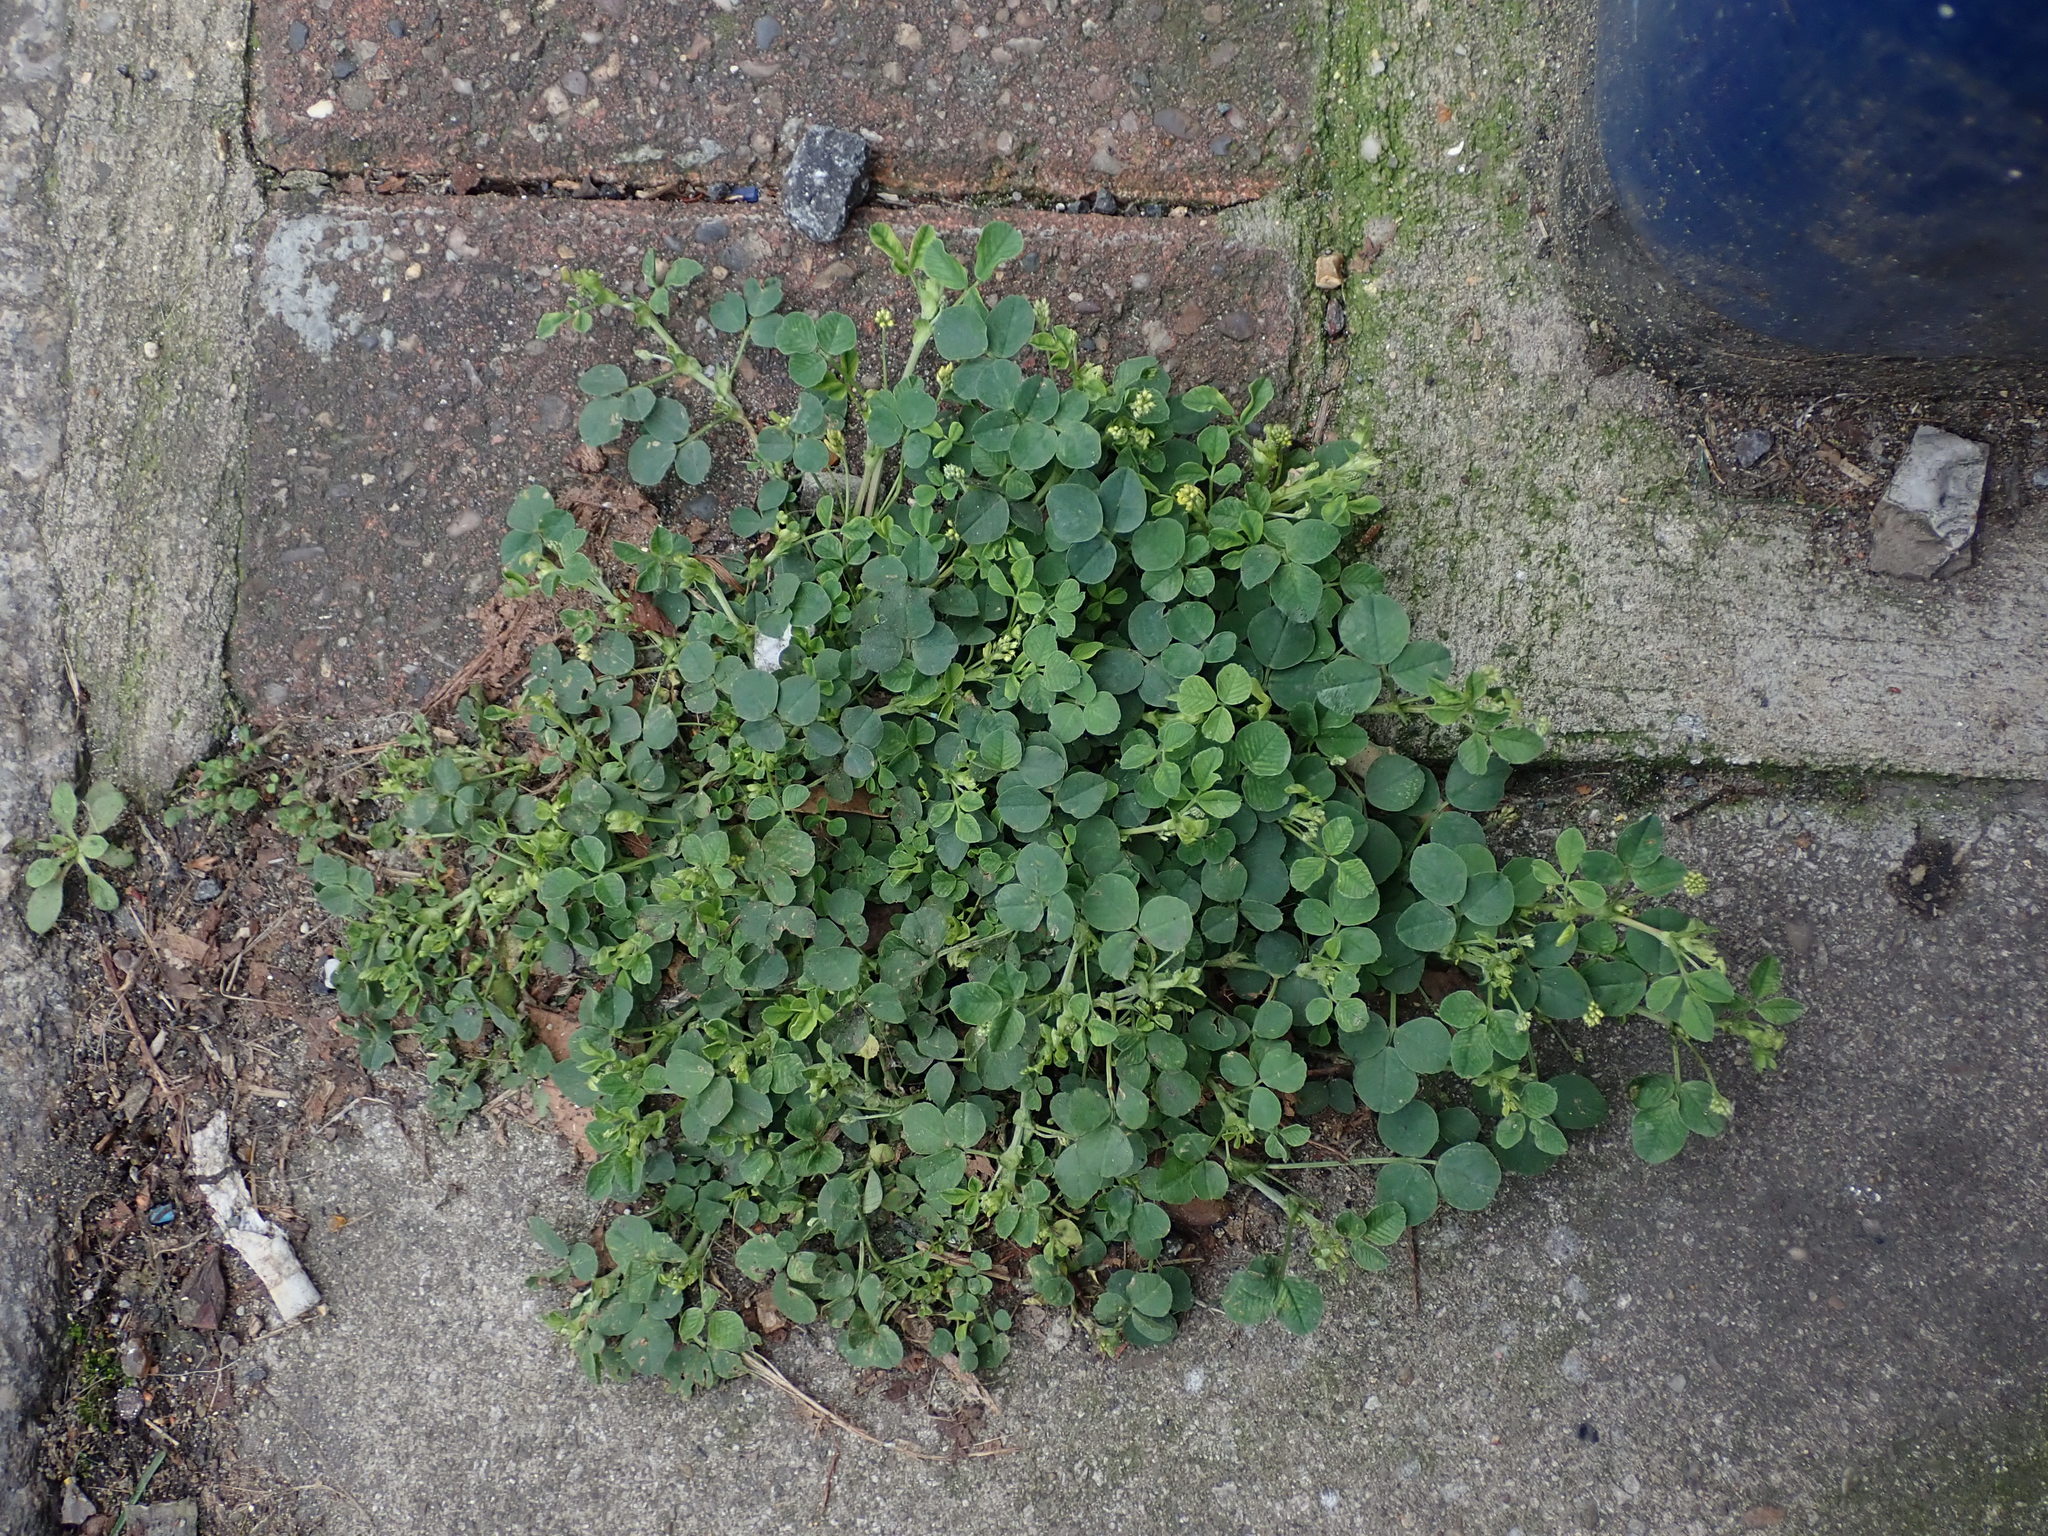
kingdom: Plantae
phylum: Tracheophyta
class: Magnoliopsida
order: Fabales
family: Fabaceae
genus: Medicago
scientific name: Medicago lupulina
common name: Black medick
